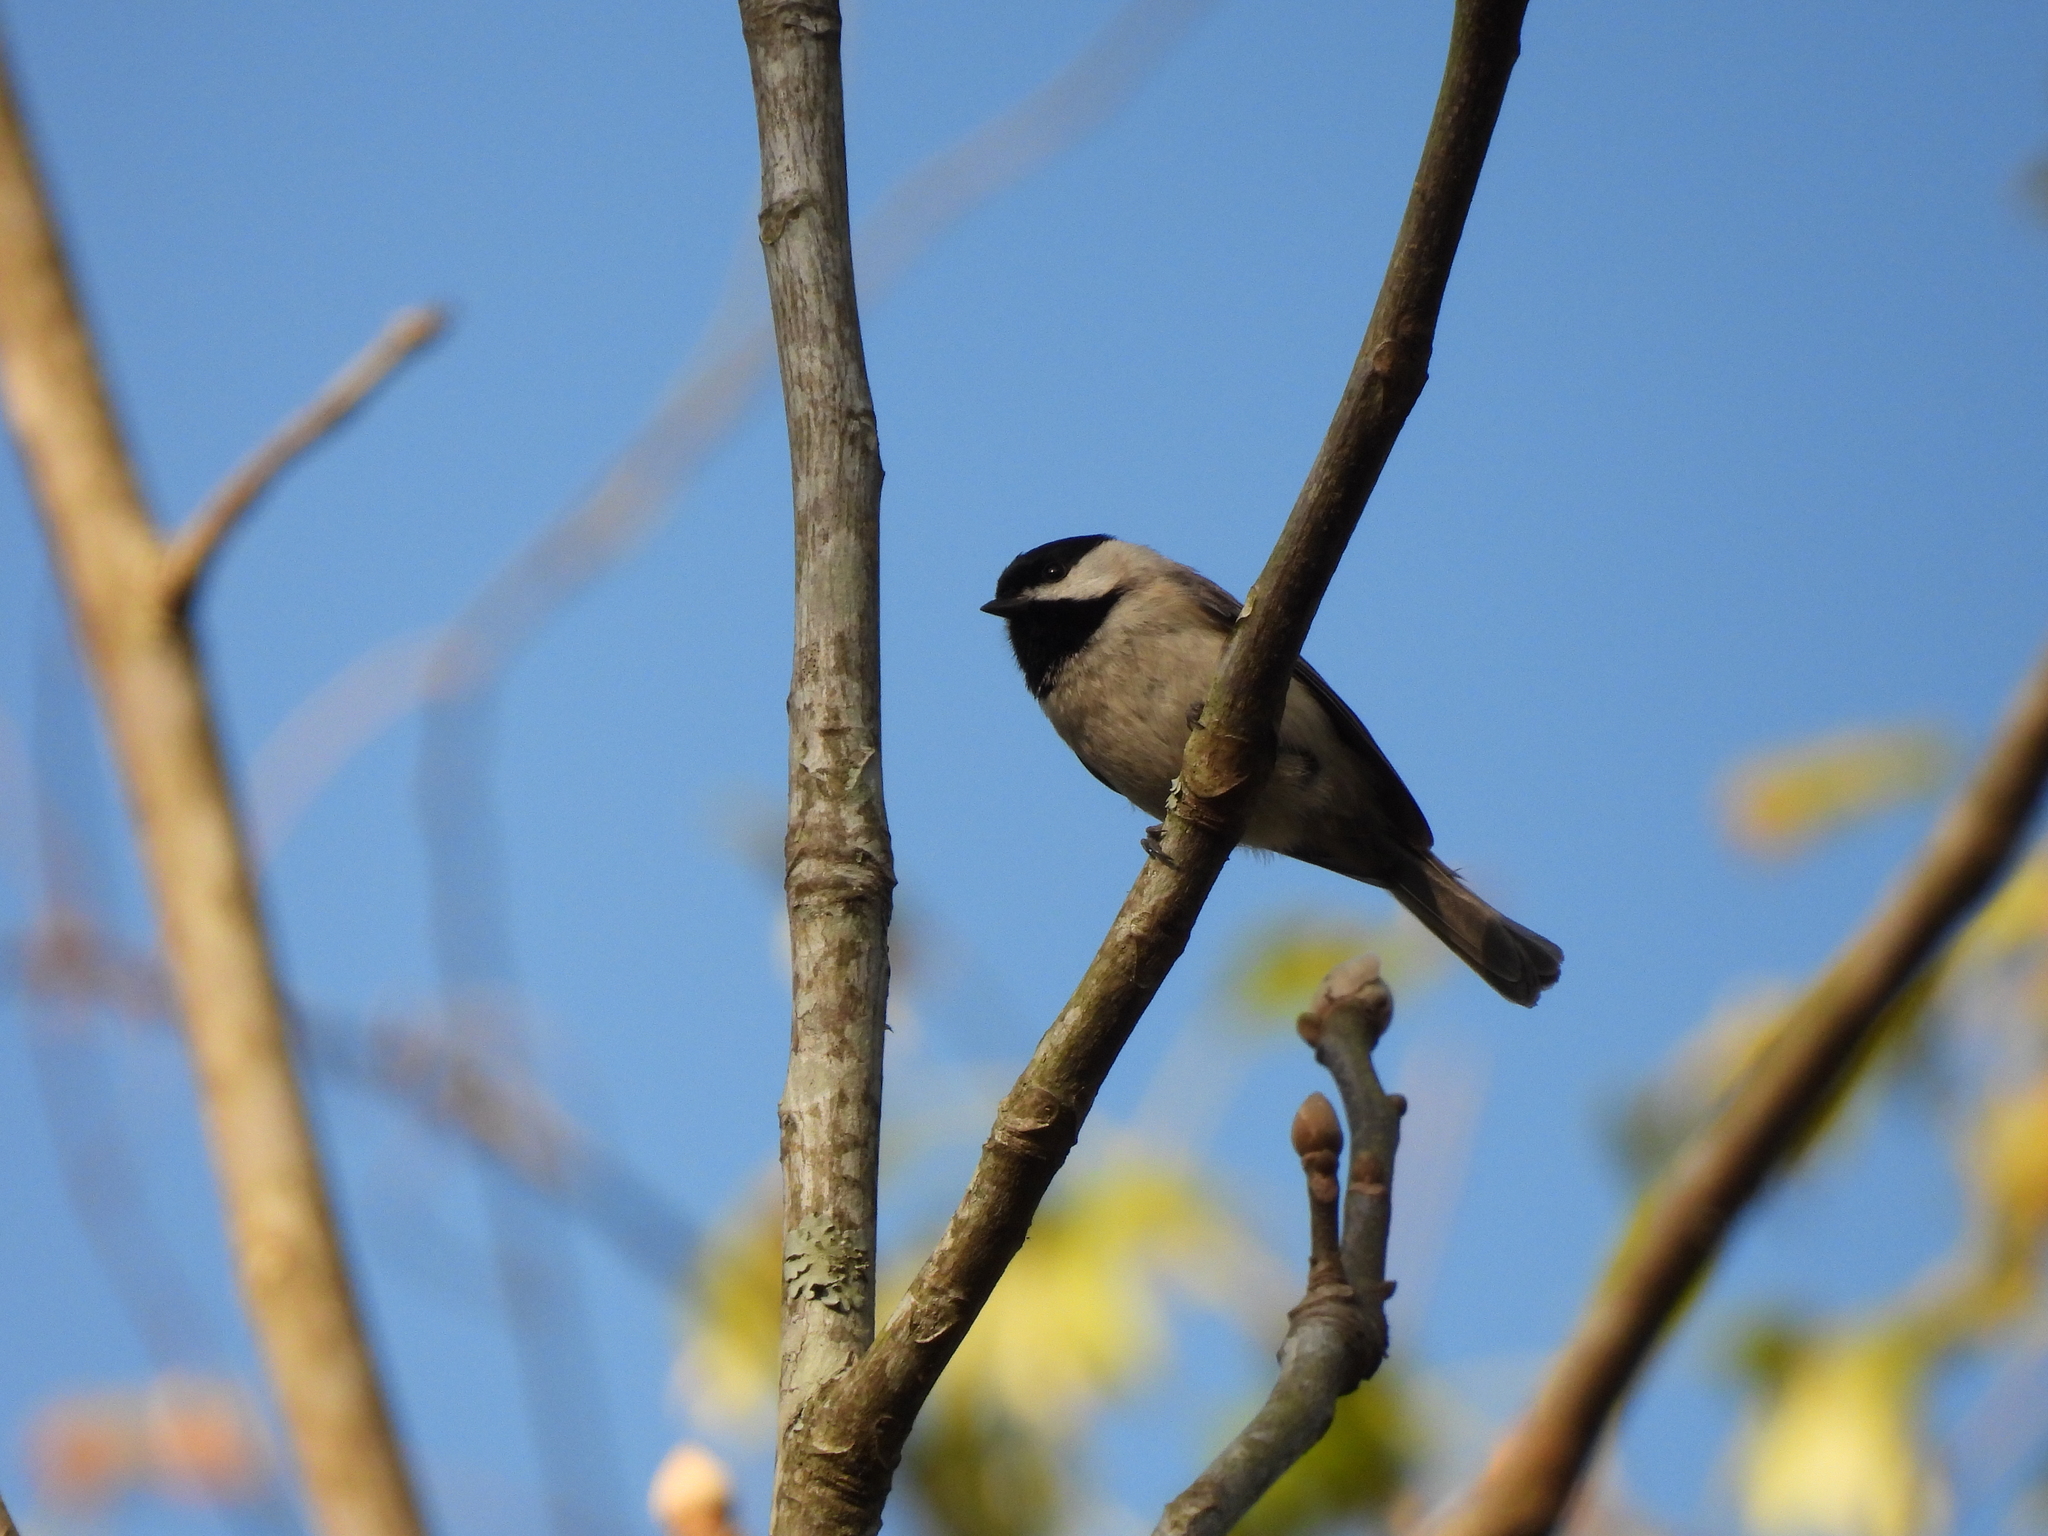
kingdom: Animalia
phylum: Chordata
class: Aves
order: Passeriformes
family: Paridae
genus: Poecile
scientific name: Poecile carolinensis
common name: Carolina chickadee
